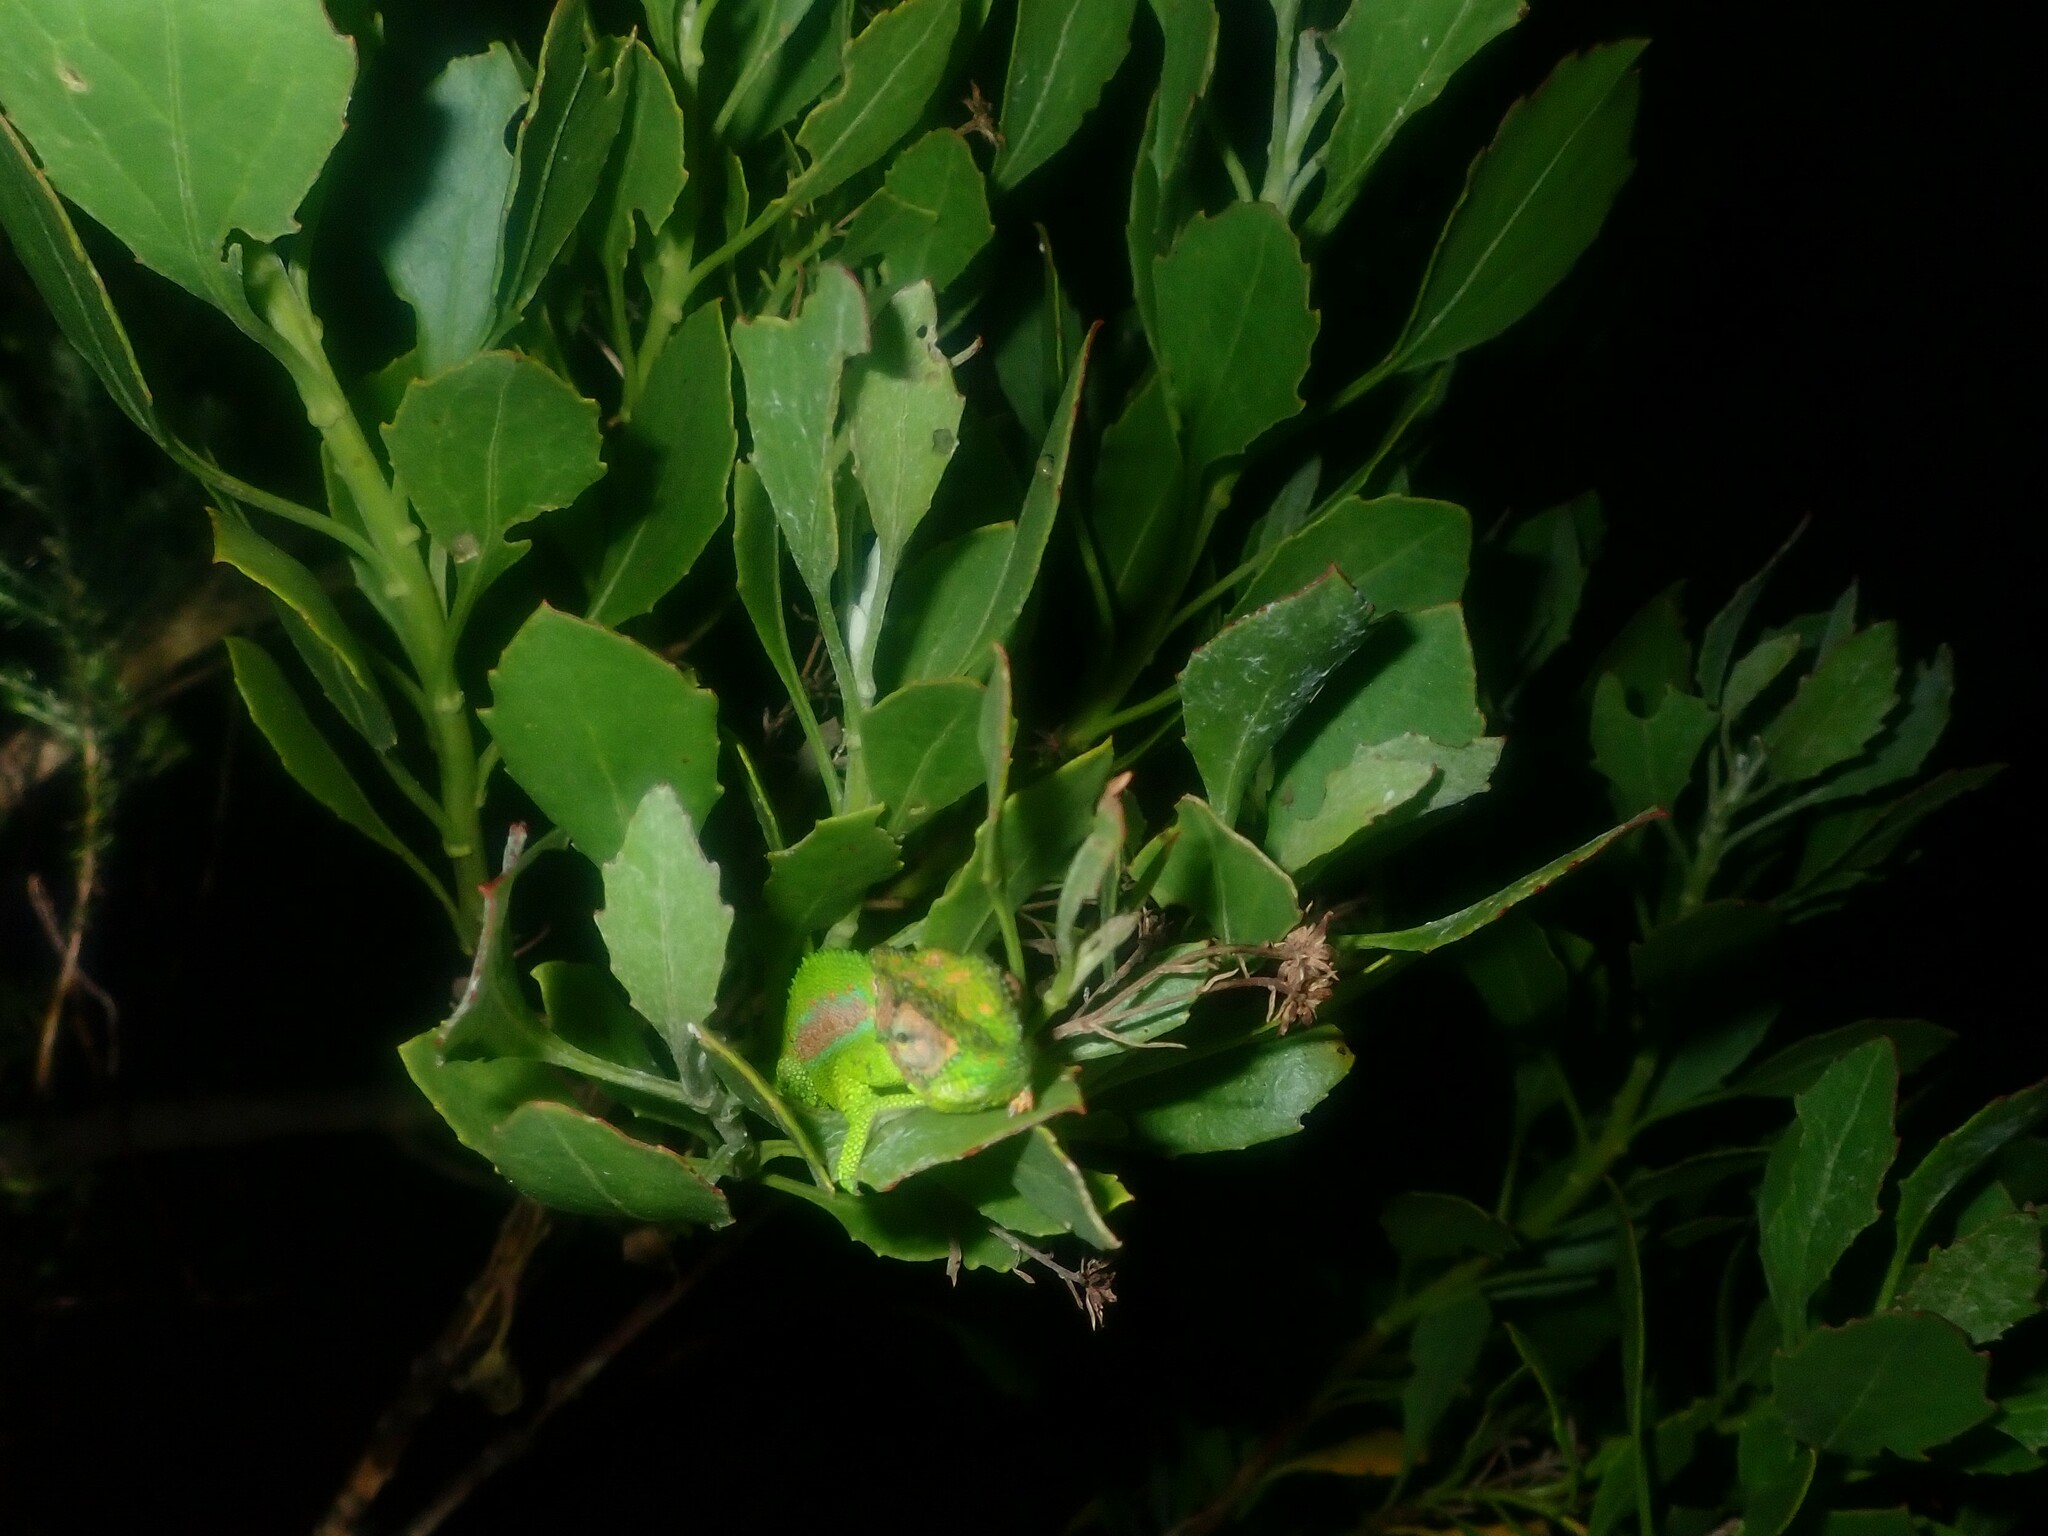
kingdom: Animalia
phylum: Chordata
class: Squamata
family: Chamaeleonidae
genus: Bradypodion
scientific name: Bradypodion pumilum
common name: Cape dwarf chameleon
